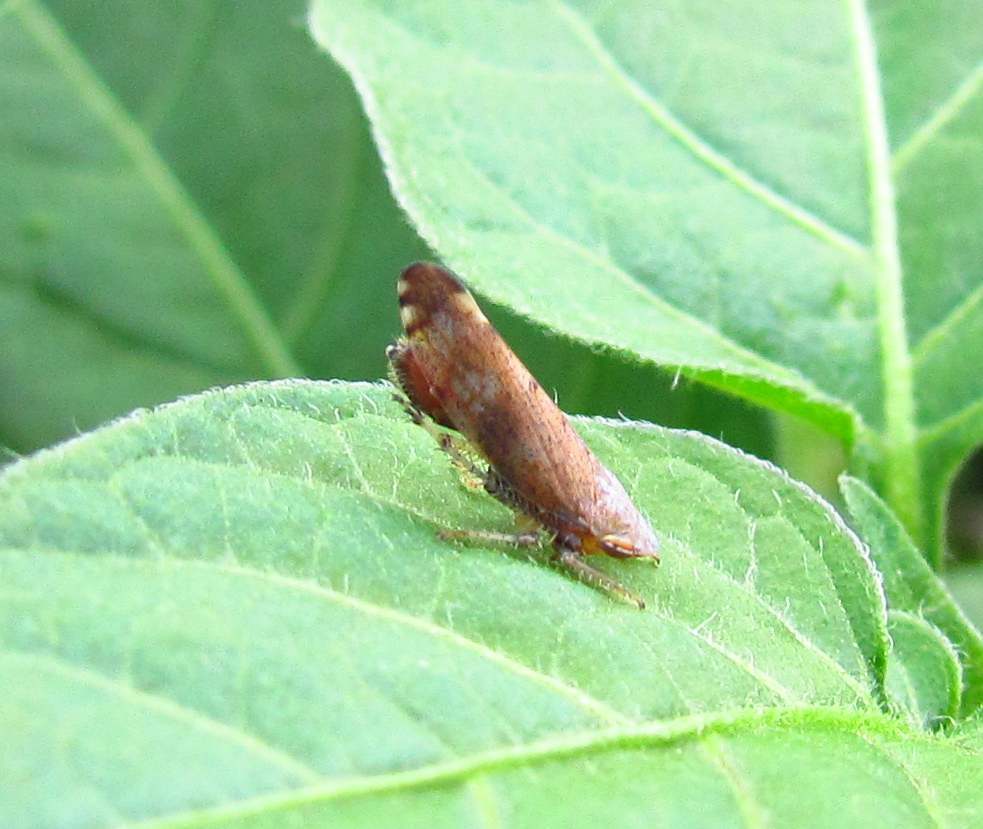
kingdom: Animalia
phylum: Arthropoda
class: Insecta
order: Hemiptera
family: Cicadellidae
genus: Fieberiella
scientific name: Fieberiella florii
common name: Flor’s leafhopper
